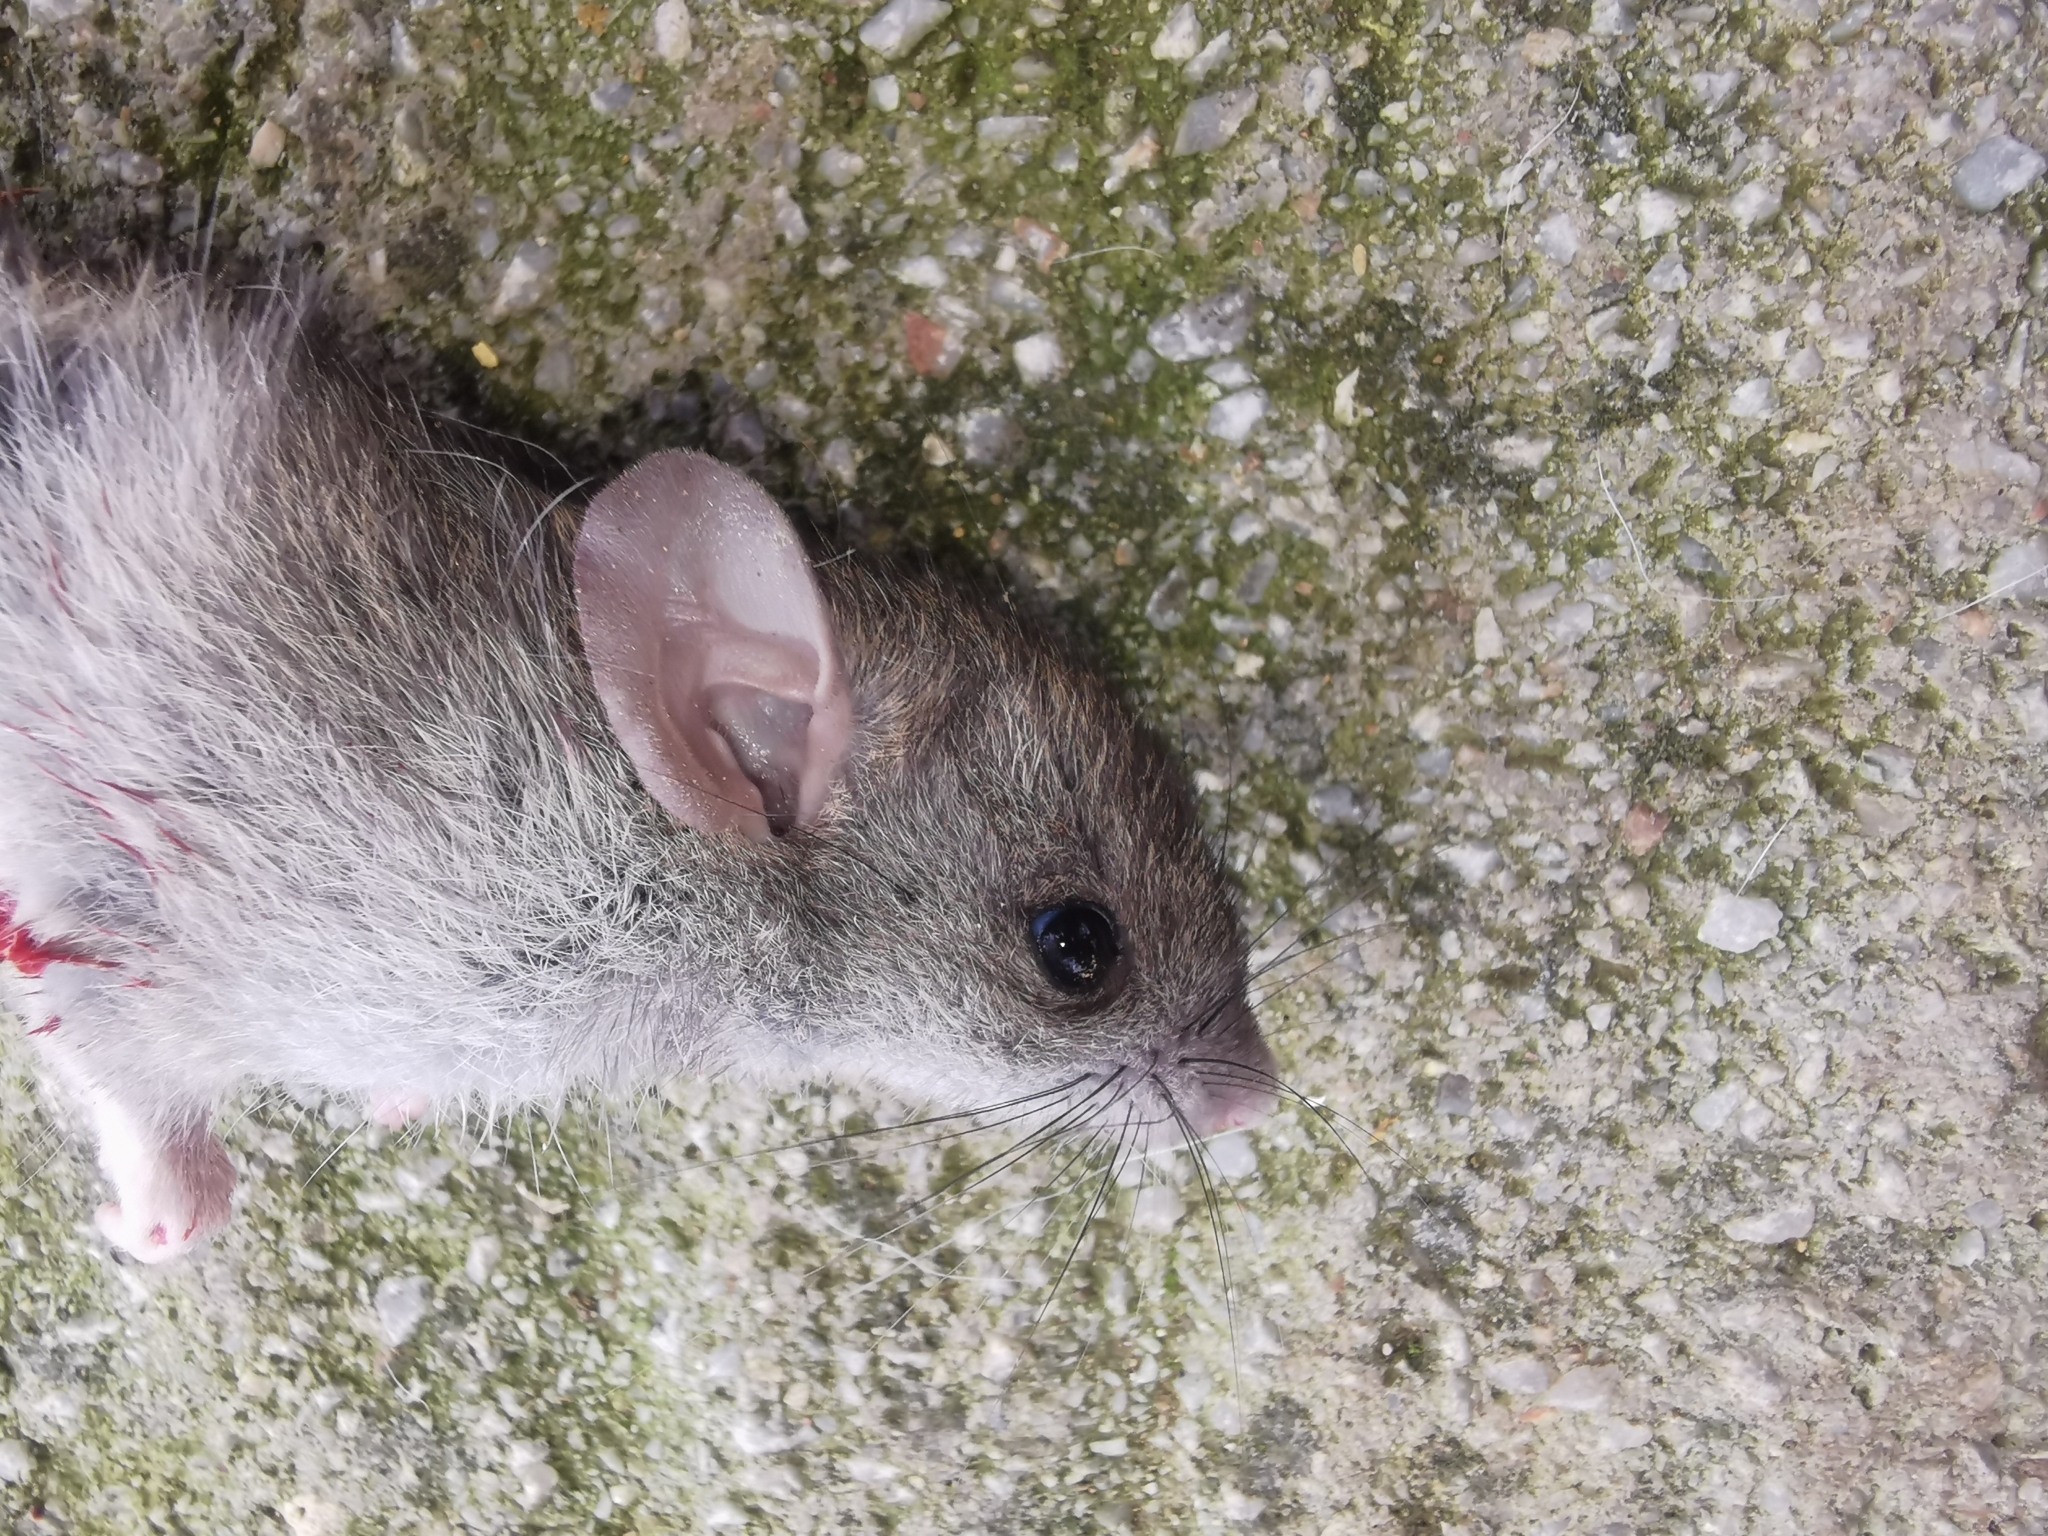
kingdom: Animalia
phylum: Chordata
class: Mammalia
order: Rodentia
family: Muridae
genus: Rattus
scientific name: Rattus rattus
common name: Black rat
